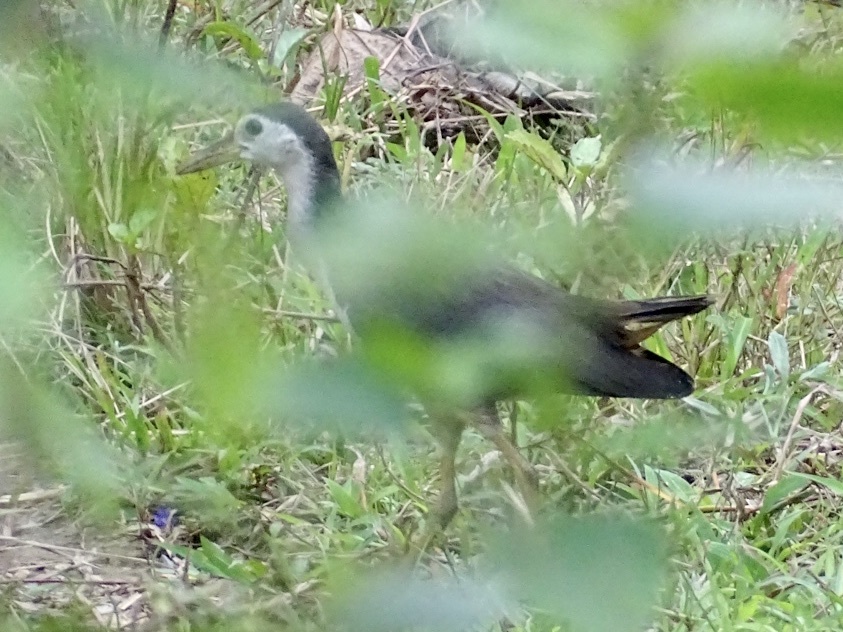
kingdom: Animalia
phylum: Chordata
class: Aves
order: Gruiformes
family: Rallidae
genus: Amaurornis
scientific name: Amaurornis phoenicurus
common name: White-breasted waterhen
